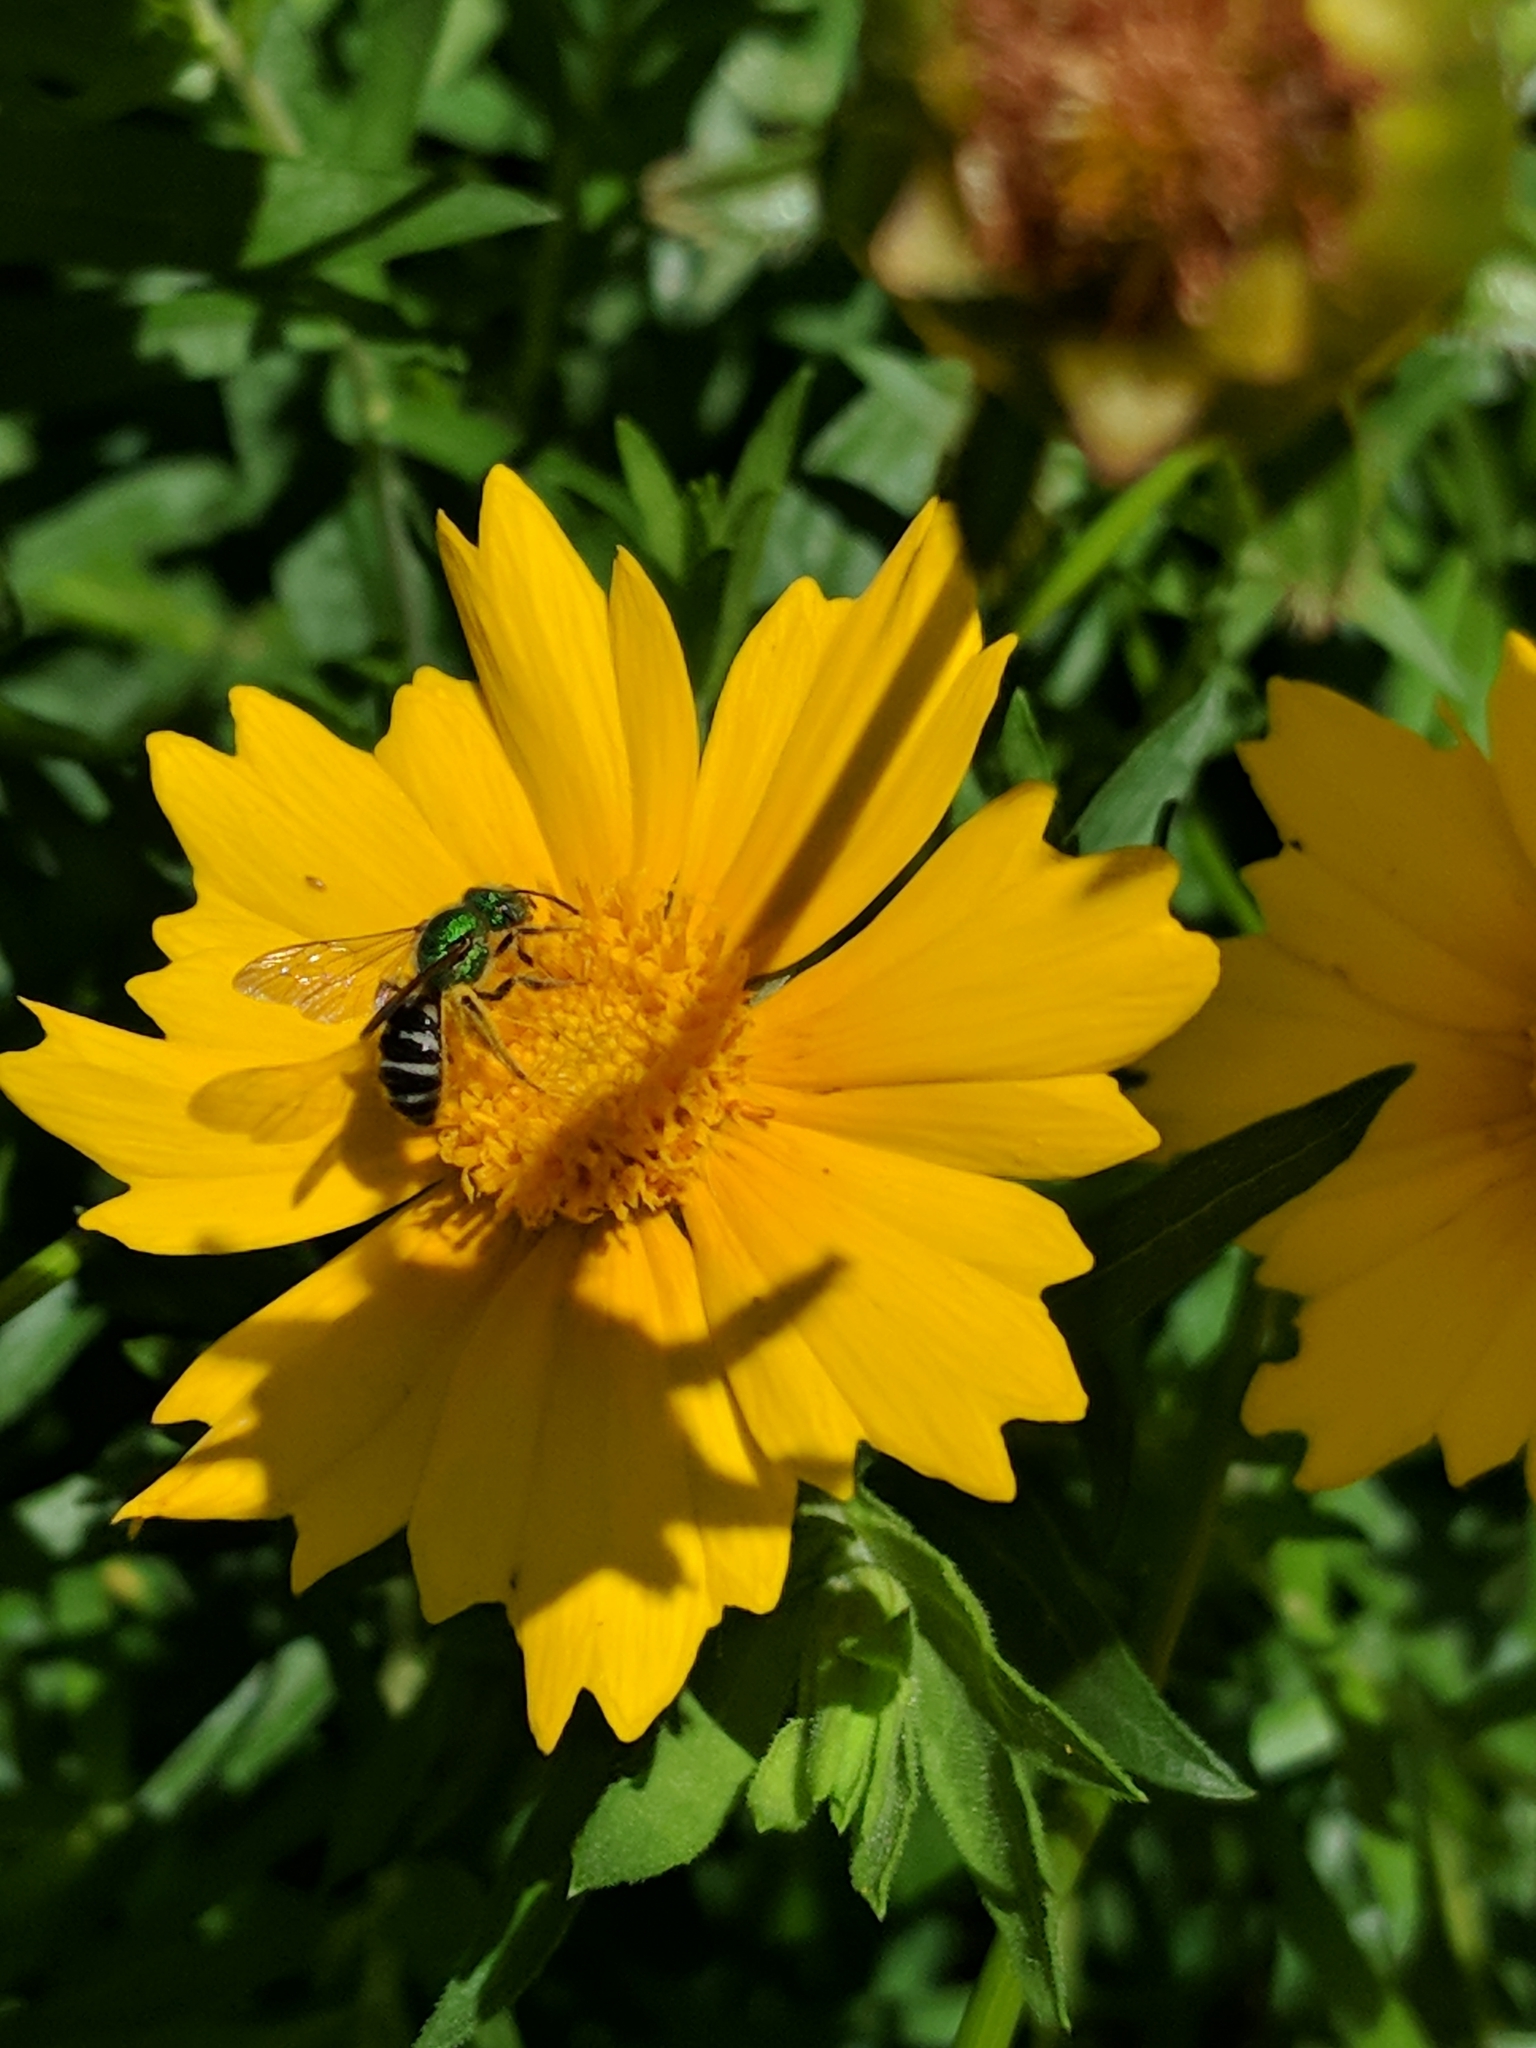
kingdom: Animalia
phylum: Arthropoda
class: Insecta
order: Hymenoptera
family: Halictidae
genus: Agapostemon
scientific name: Agapostemon virescens
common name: Bicolored striped sweat bee
